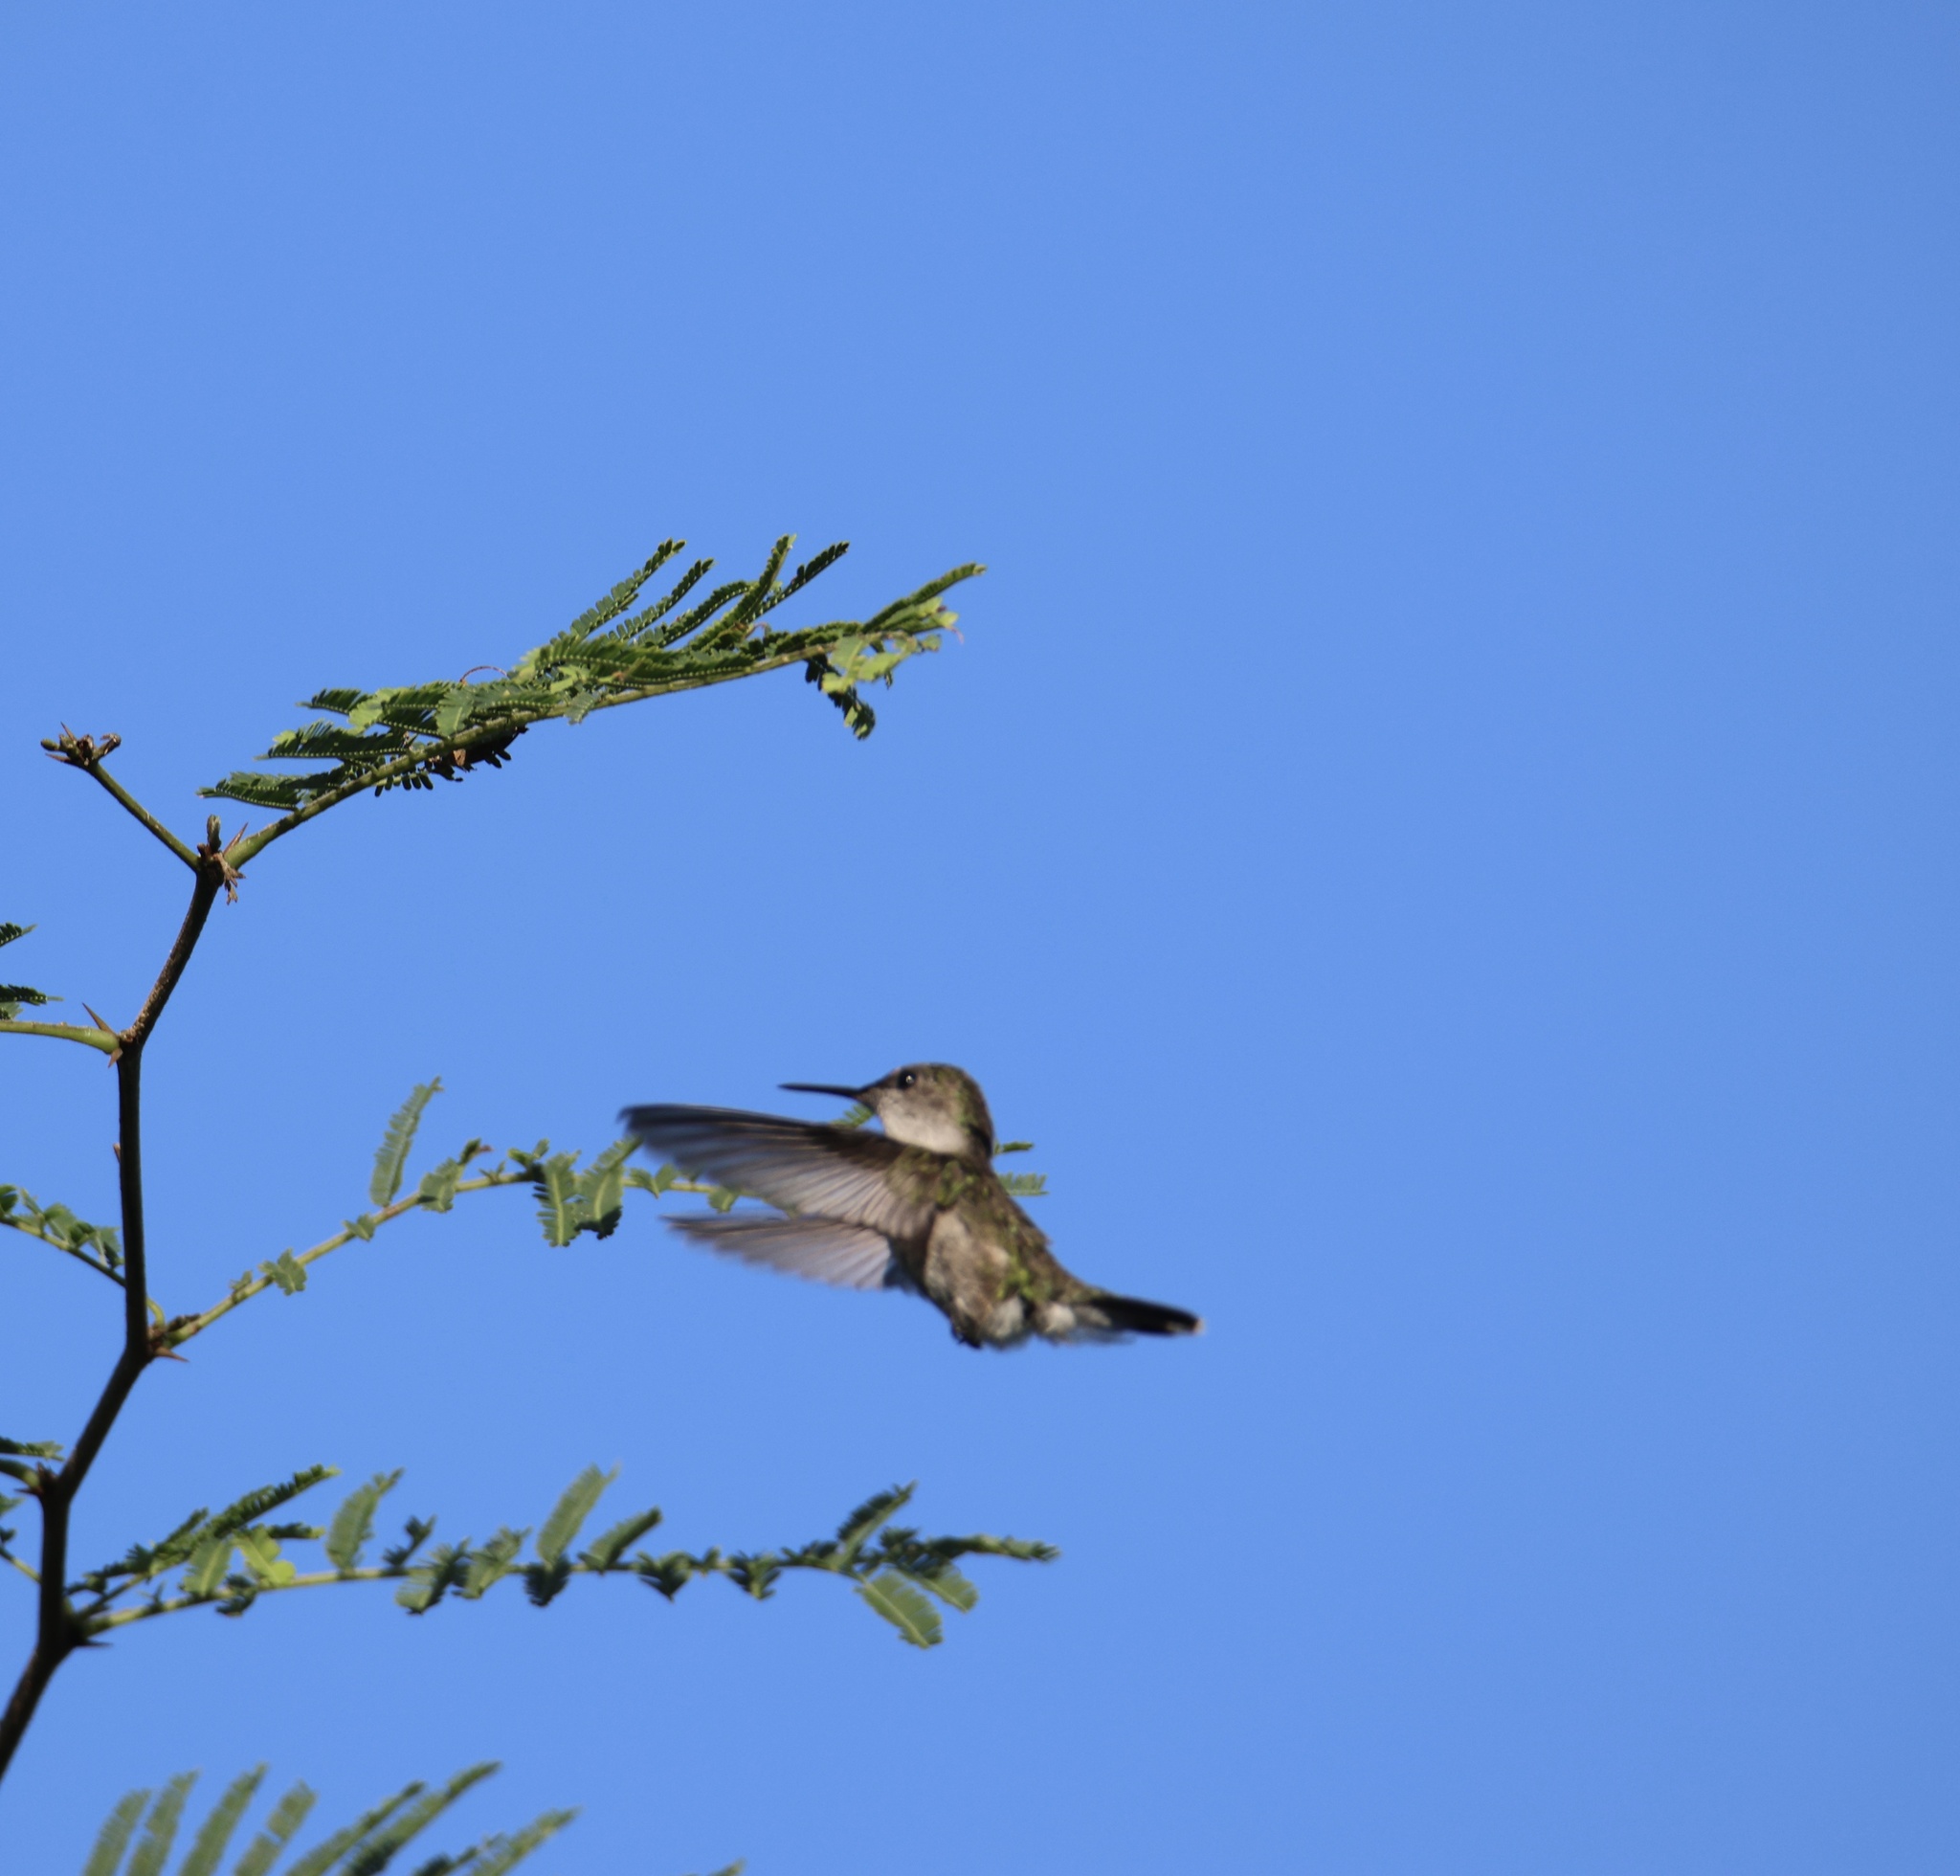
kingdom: Animalia
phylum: Chordata
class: Aves
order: Apodiformes
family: Trochilidae
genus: Mellisuga
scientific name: Mellisuga minima
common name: Vervain hummingbird
